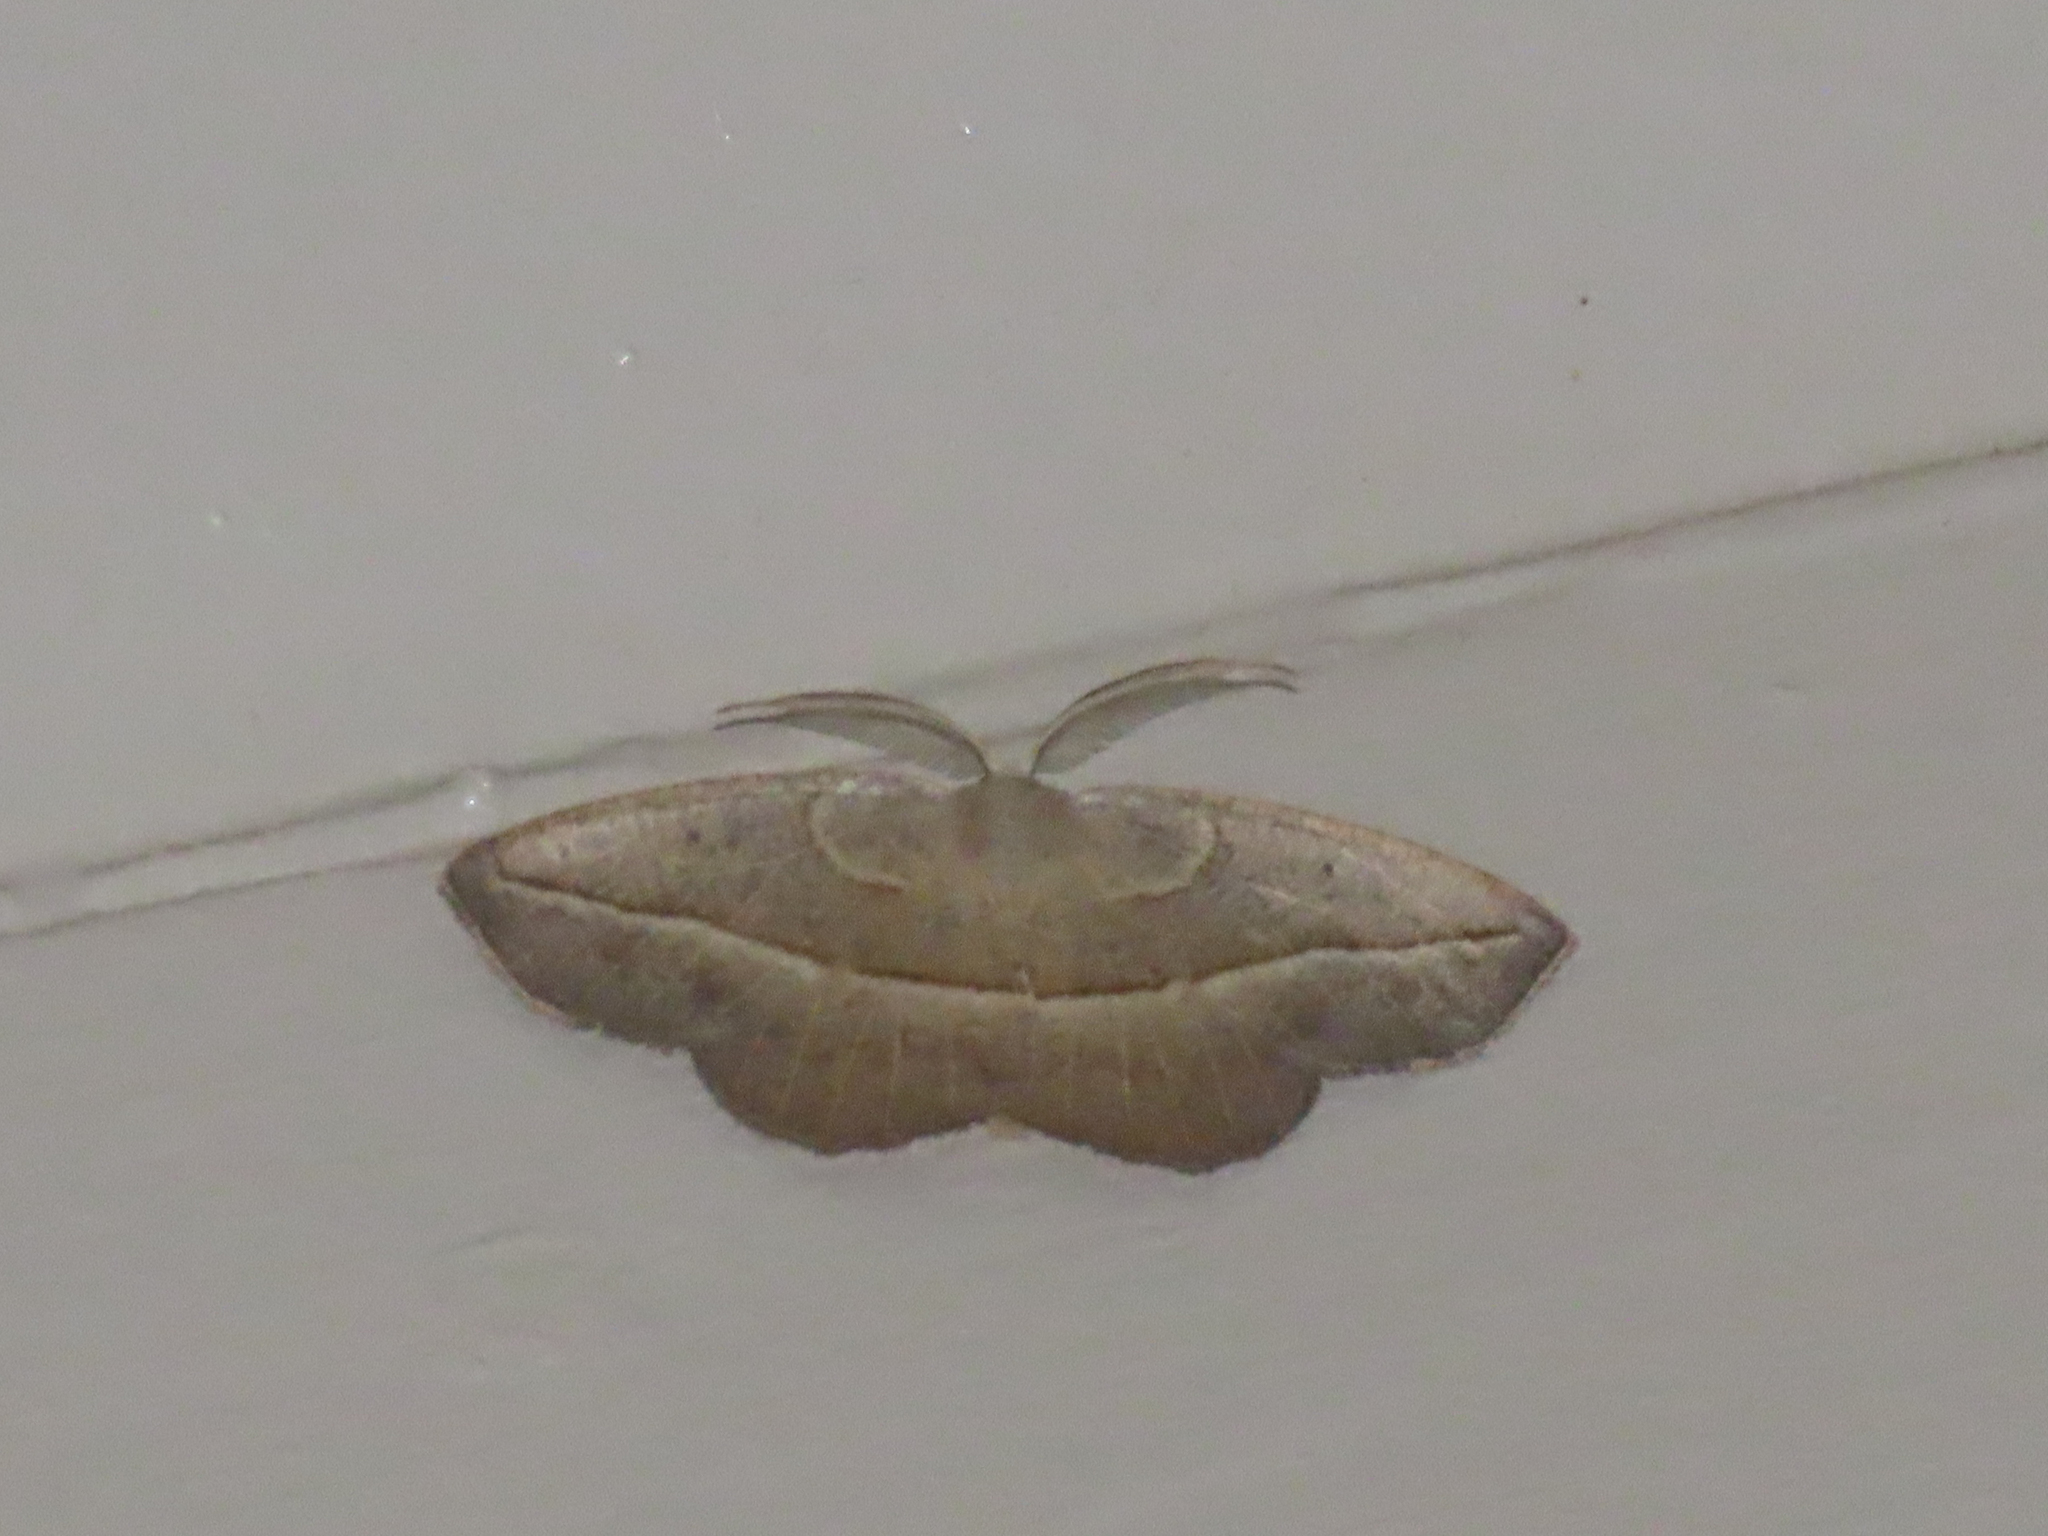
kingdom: Animalia
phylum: Arthropoda
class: Insecta
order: Lepidoptera
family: Geometridae
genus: Eusarca
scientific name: Eusarca confusaria
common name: Confused eusarca
